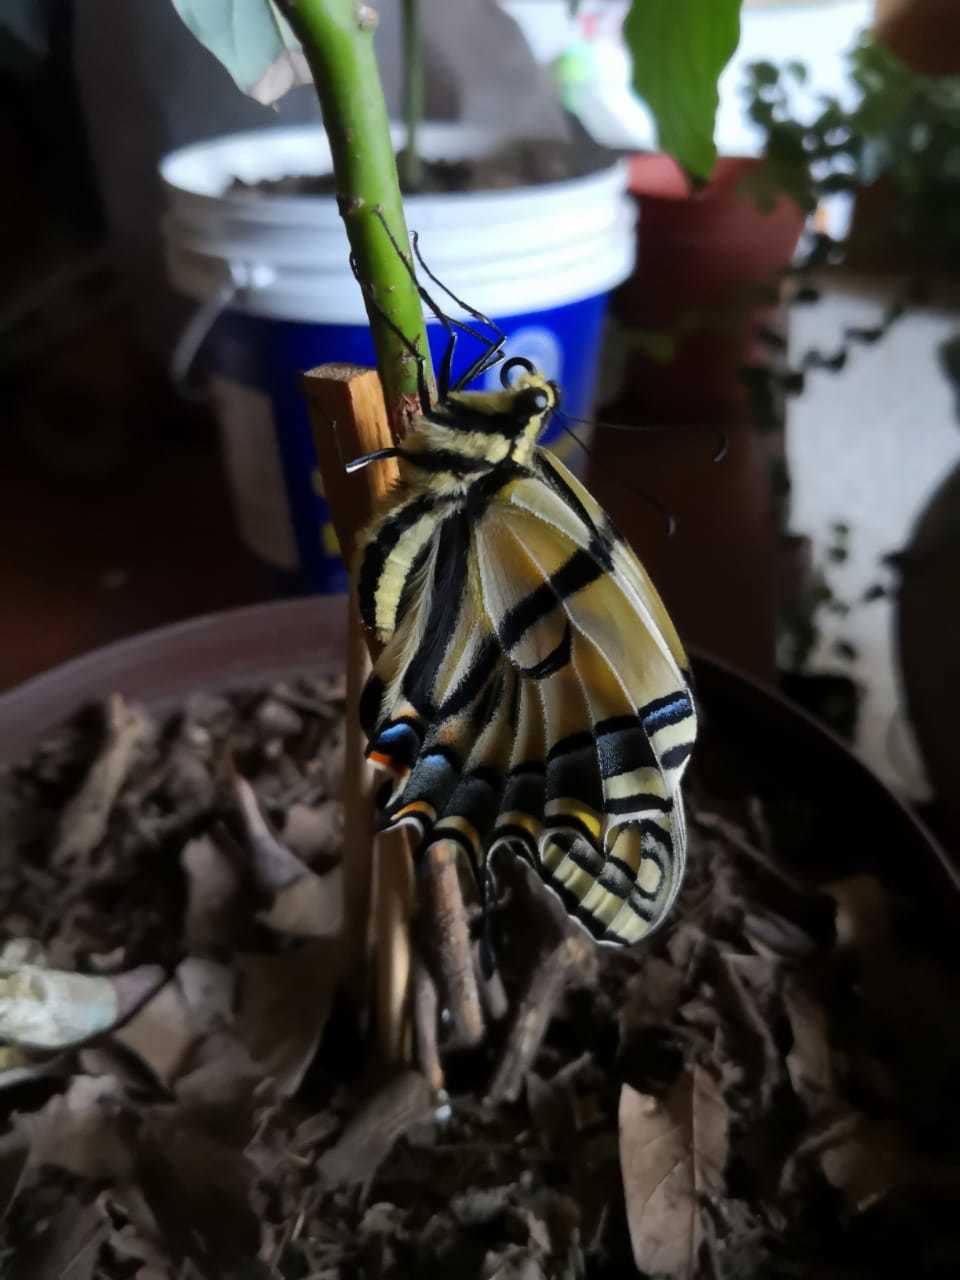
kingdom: Animalia
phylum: Arthropoda
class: Insecta
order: Lepidoptera
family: Papilionidae
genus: Papilio
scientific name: Papilio multicaudata
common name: Two-tailed tiger swallowtail
